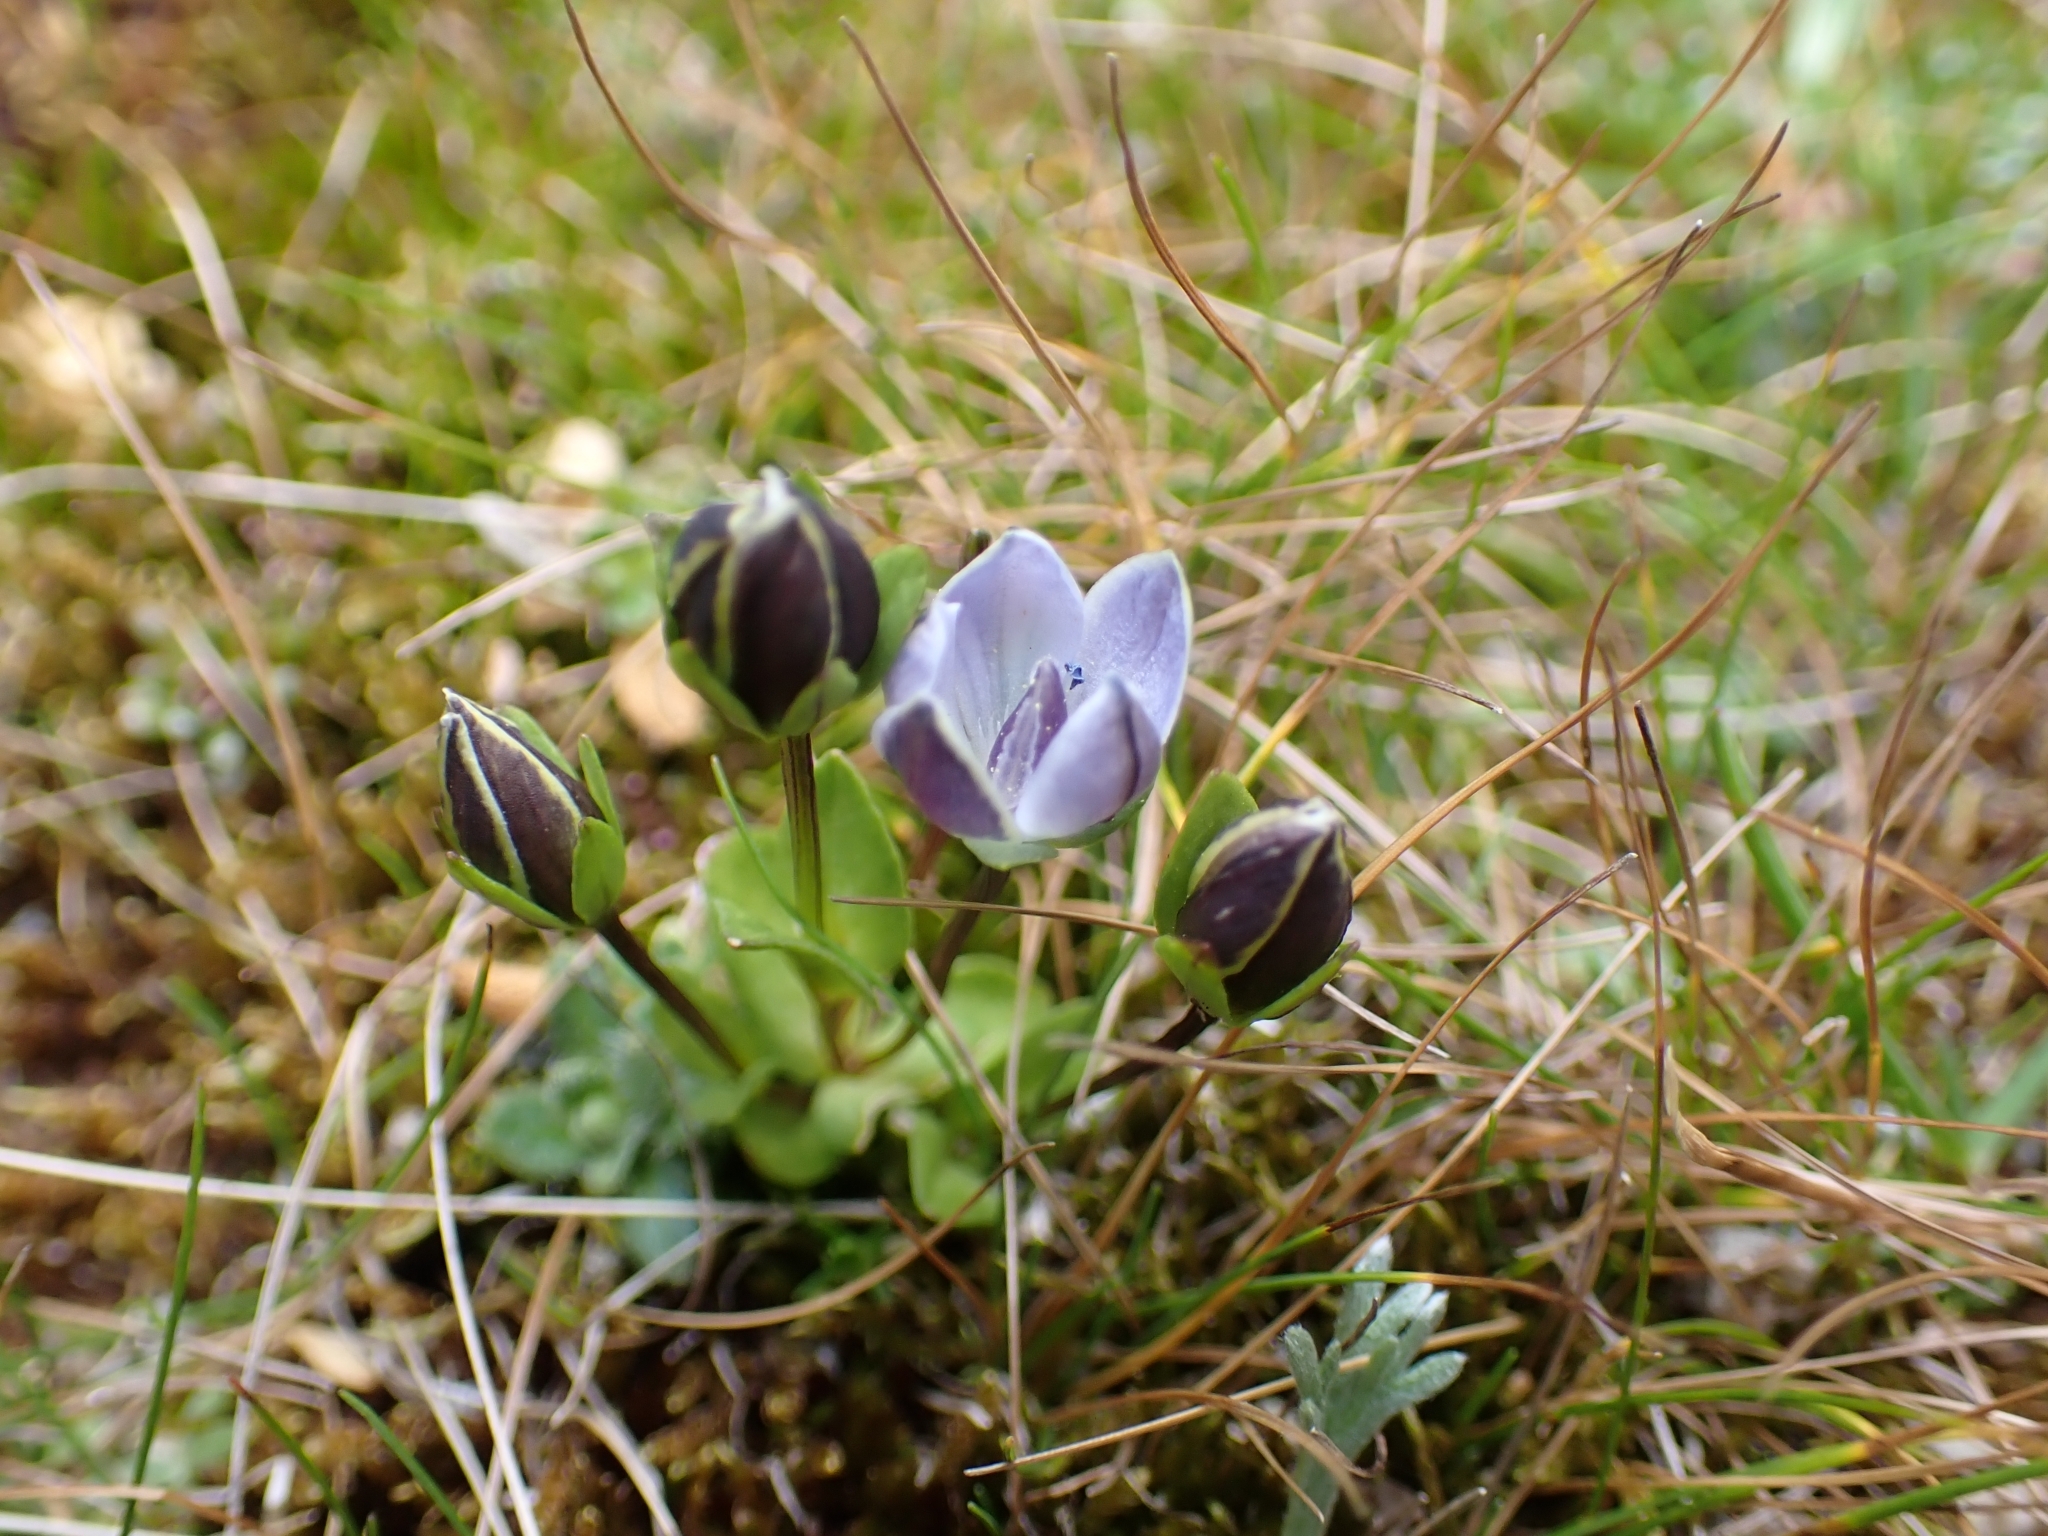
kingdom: Plantae
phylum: Tracheophyta
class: Magnoliopsida
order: Gentianales
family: Gentianaceae
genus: Lomatogonium
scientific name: Lomatogonium carinthiacum
